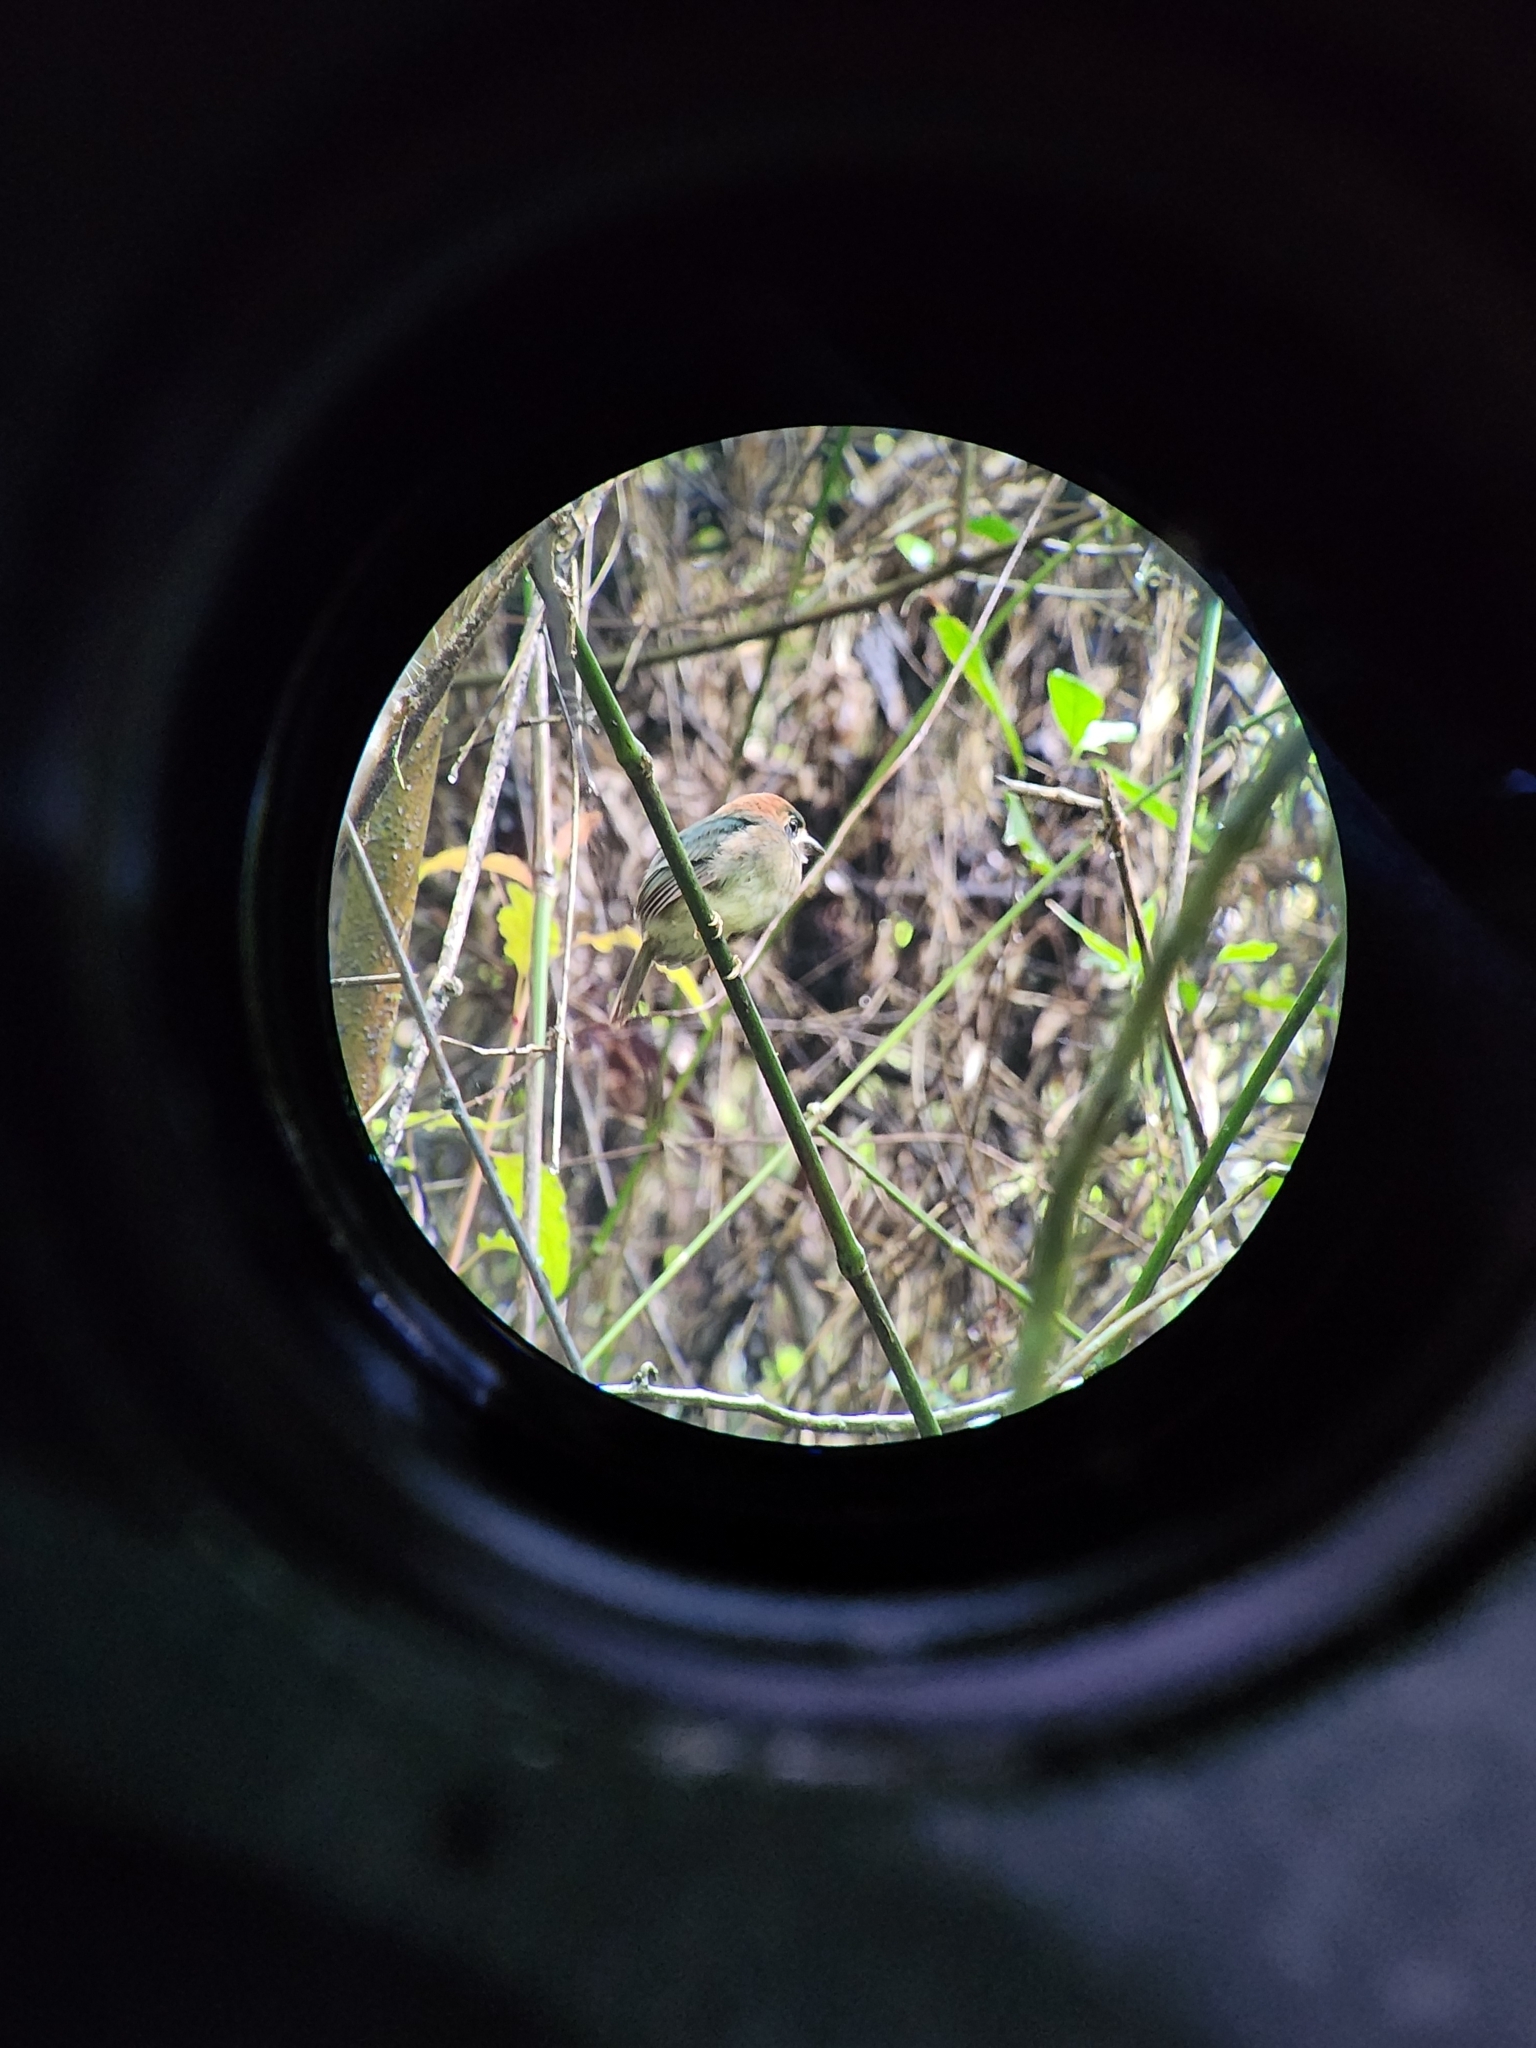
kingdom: Animalia
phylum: Chordata
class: Aves
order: Coraciiformes
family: Momotidae
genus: Hylomanes
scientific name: Hylomanes momotula
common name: Tody motmot
